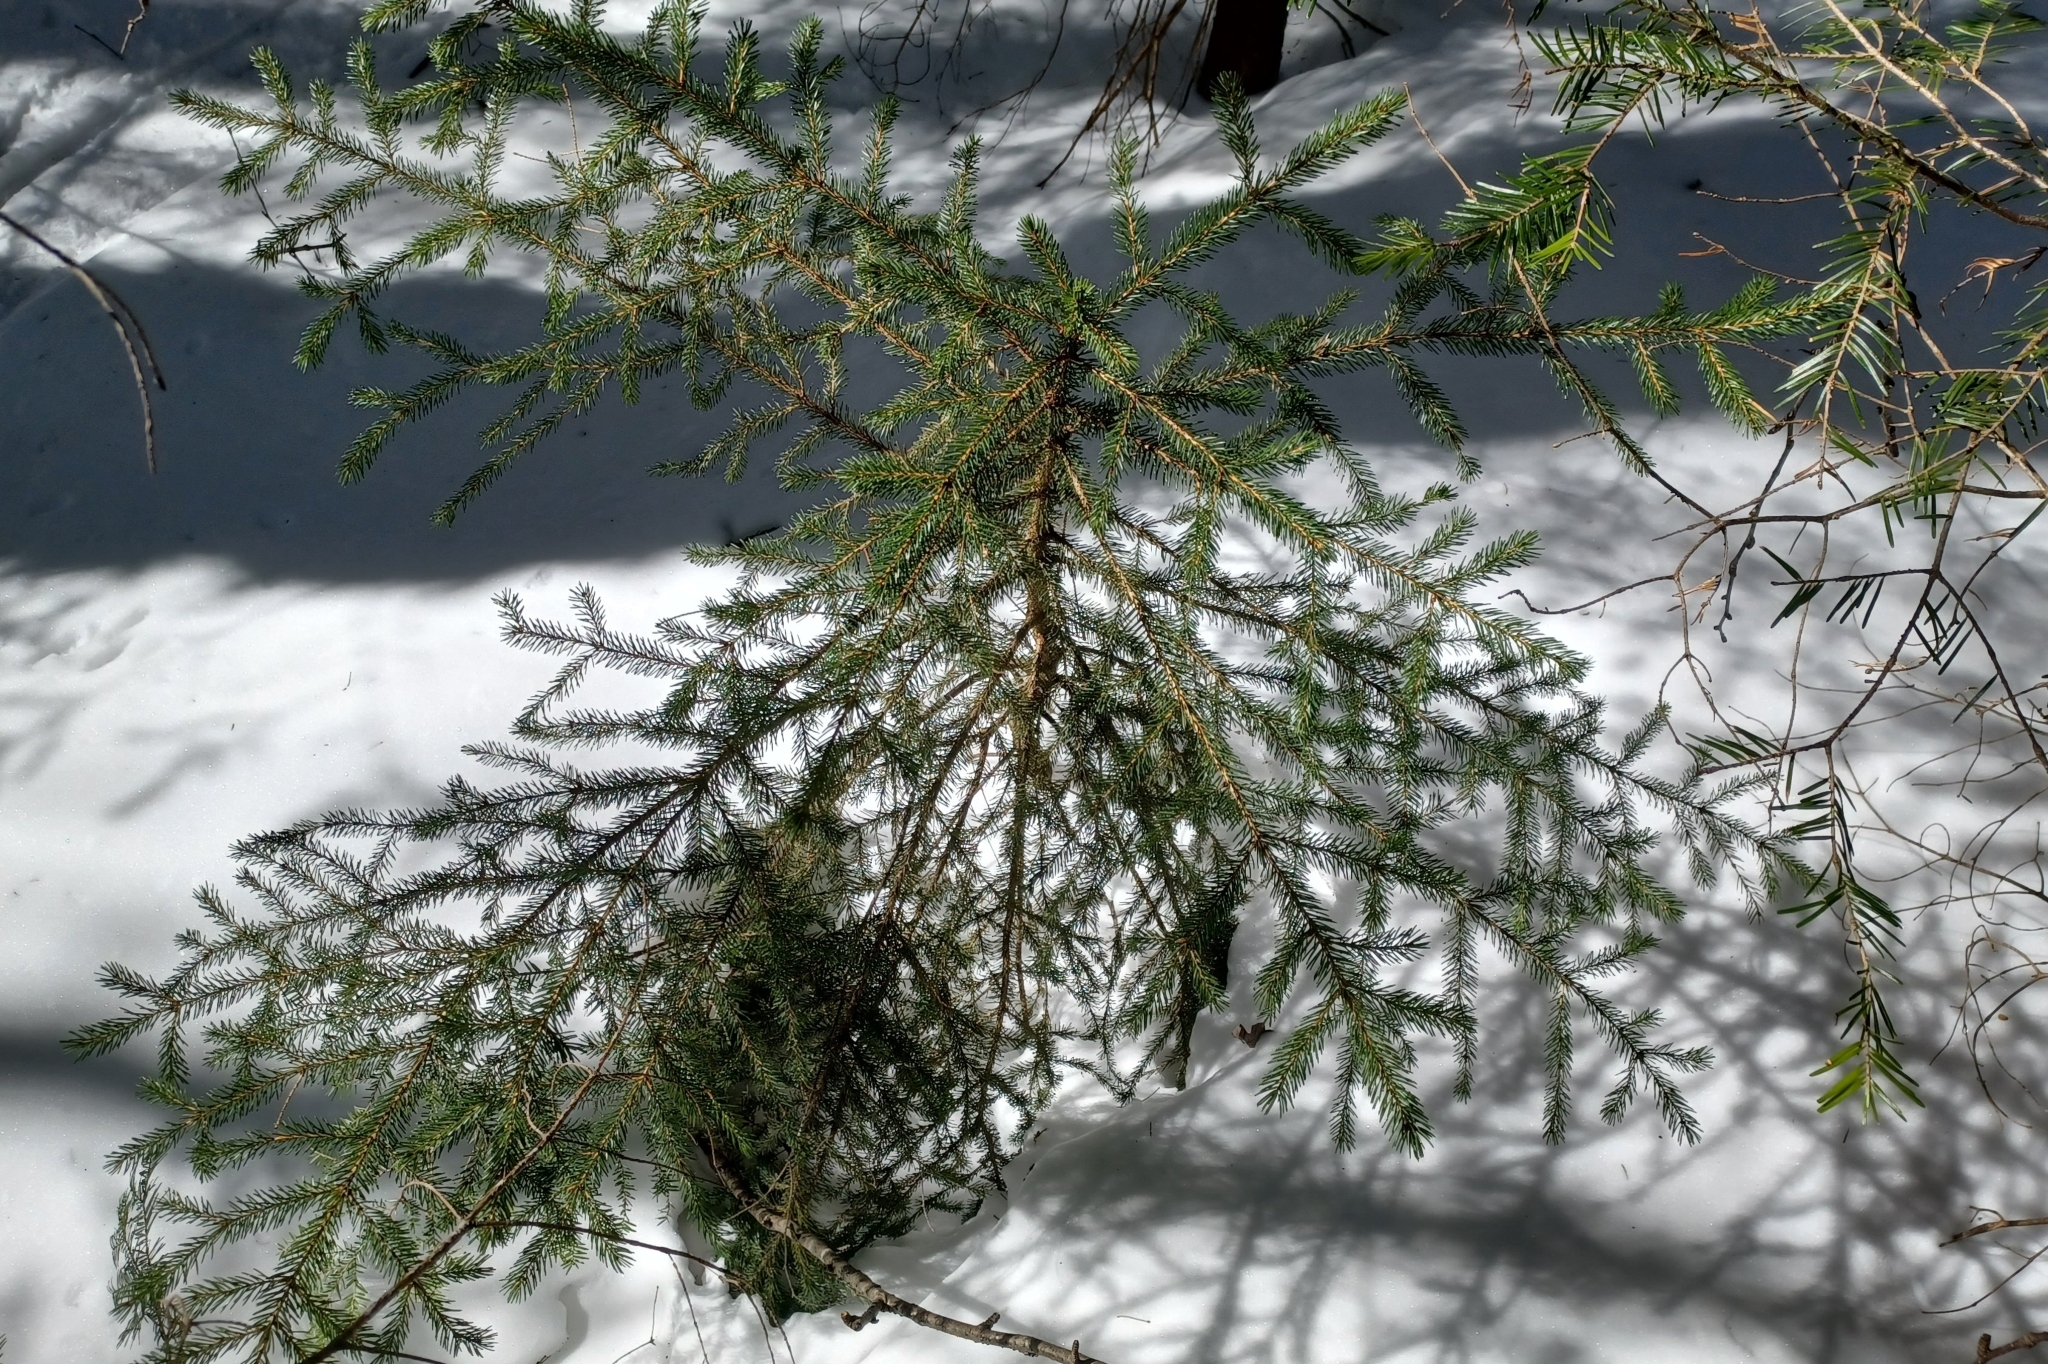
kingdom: Plantae
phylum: Tracheophyta
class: Pinopsida
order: Pinales
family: Pinaceae
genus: Picea
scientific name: Picea rubens
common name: Red spruce
